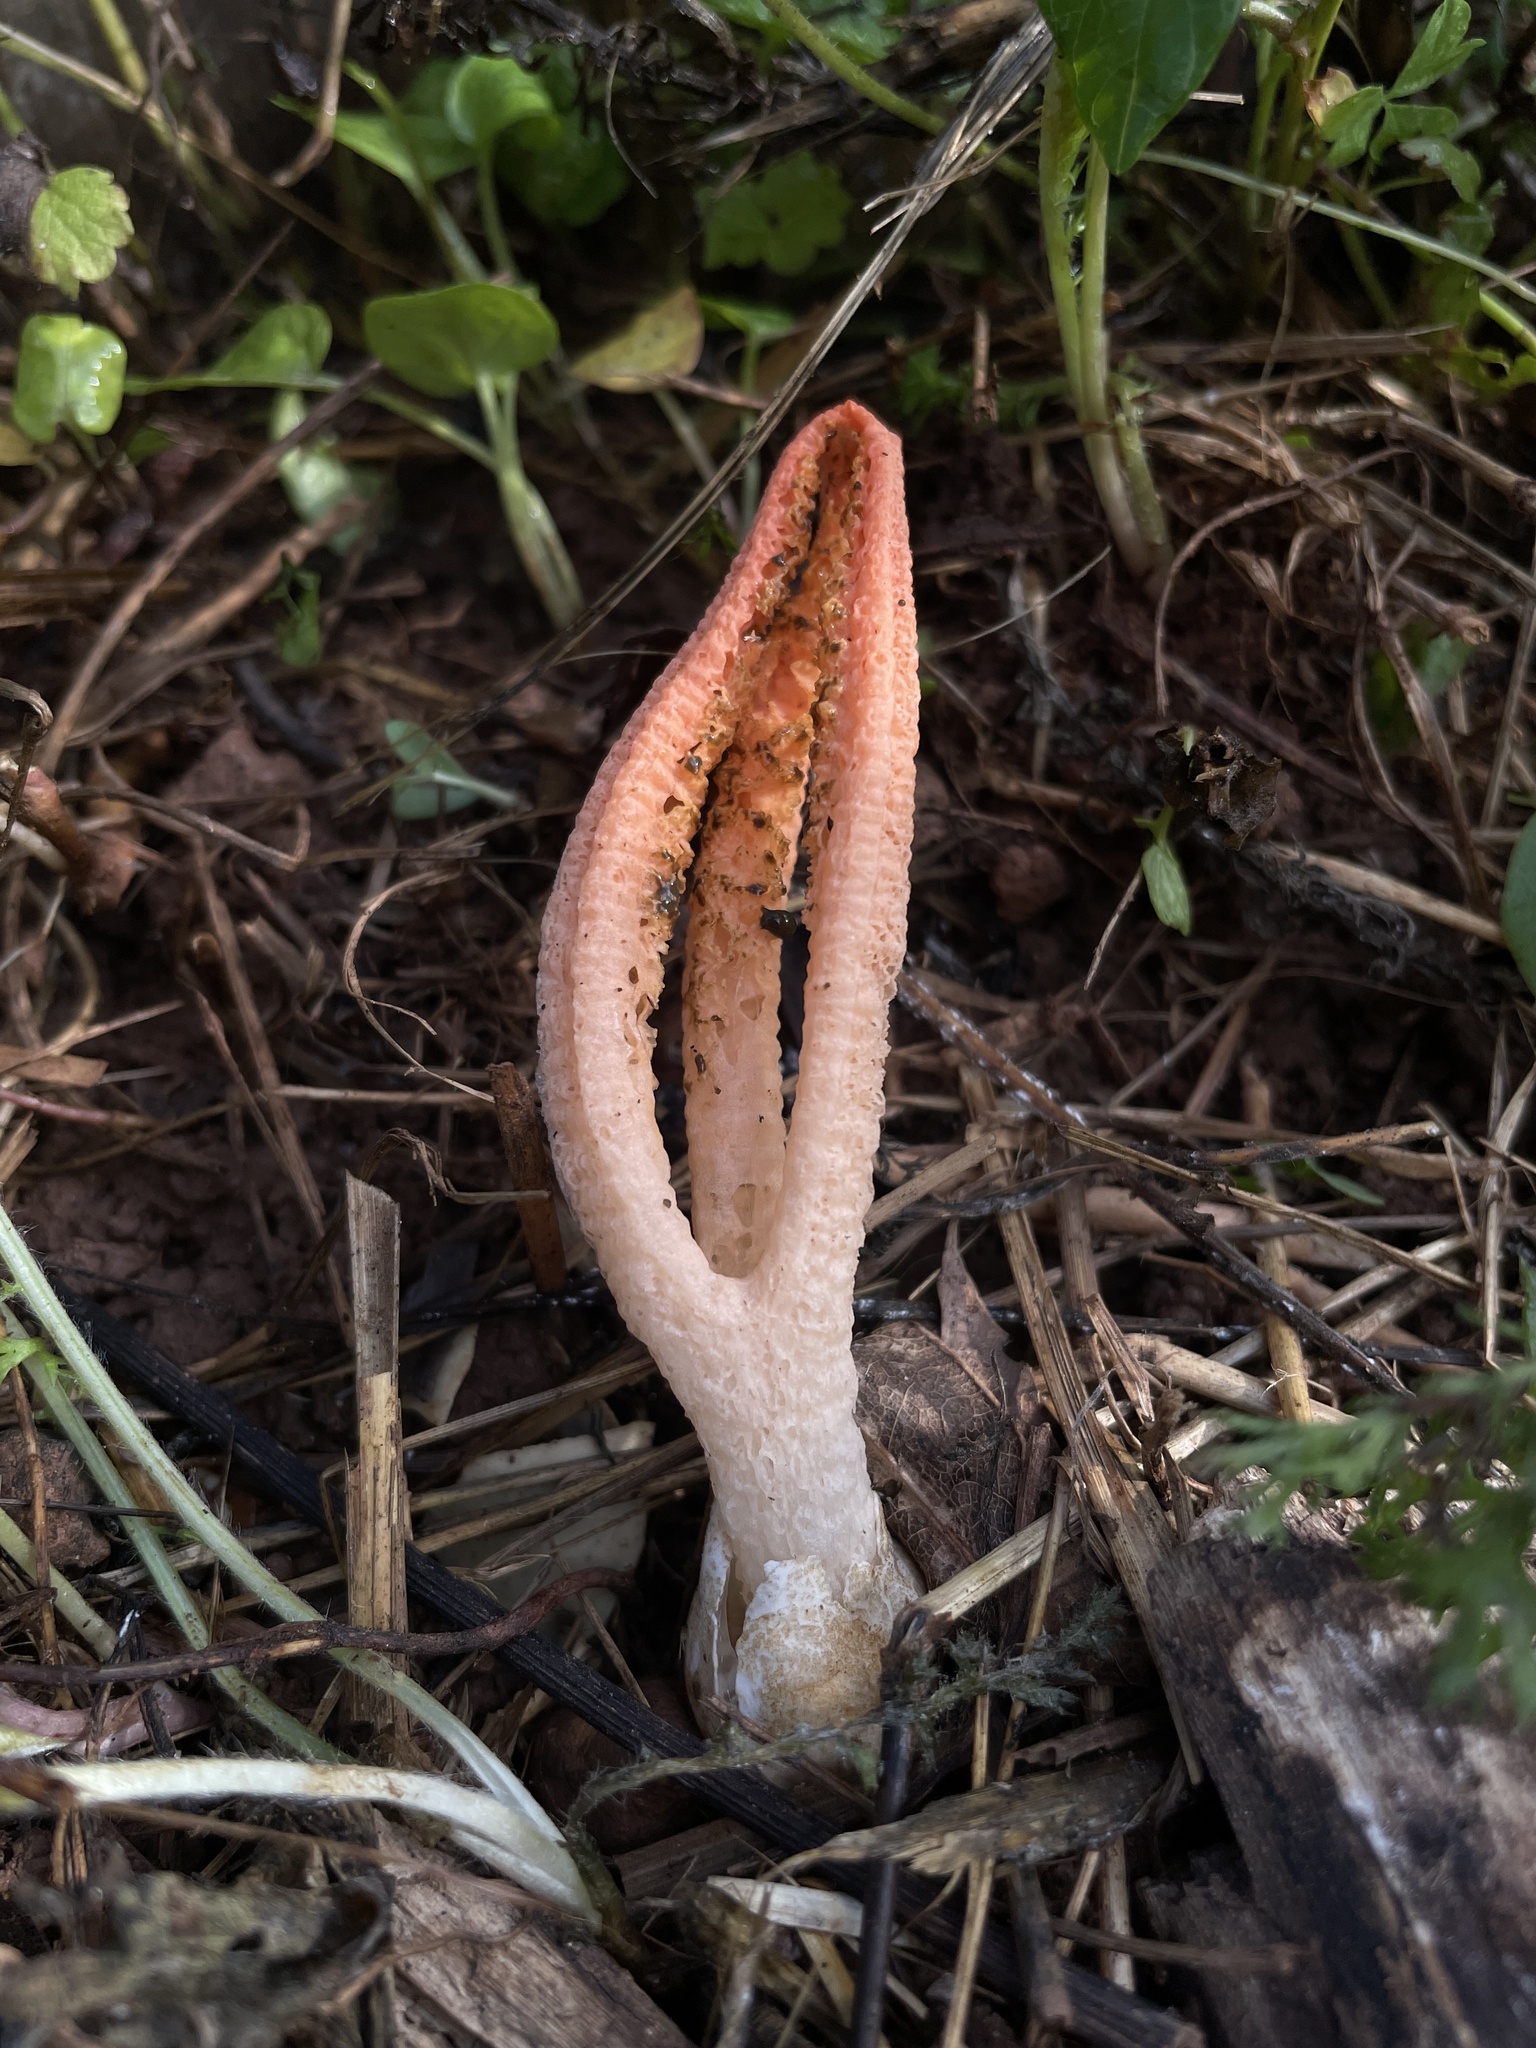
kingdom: Fungi
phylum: Basidiomycota
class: Agaricomycetes
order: Phallales
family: Phallaceae
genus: Pseudocolus
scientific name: Pseudocolus fusiformis
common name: Stinky squid
